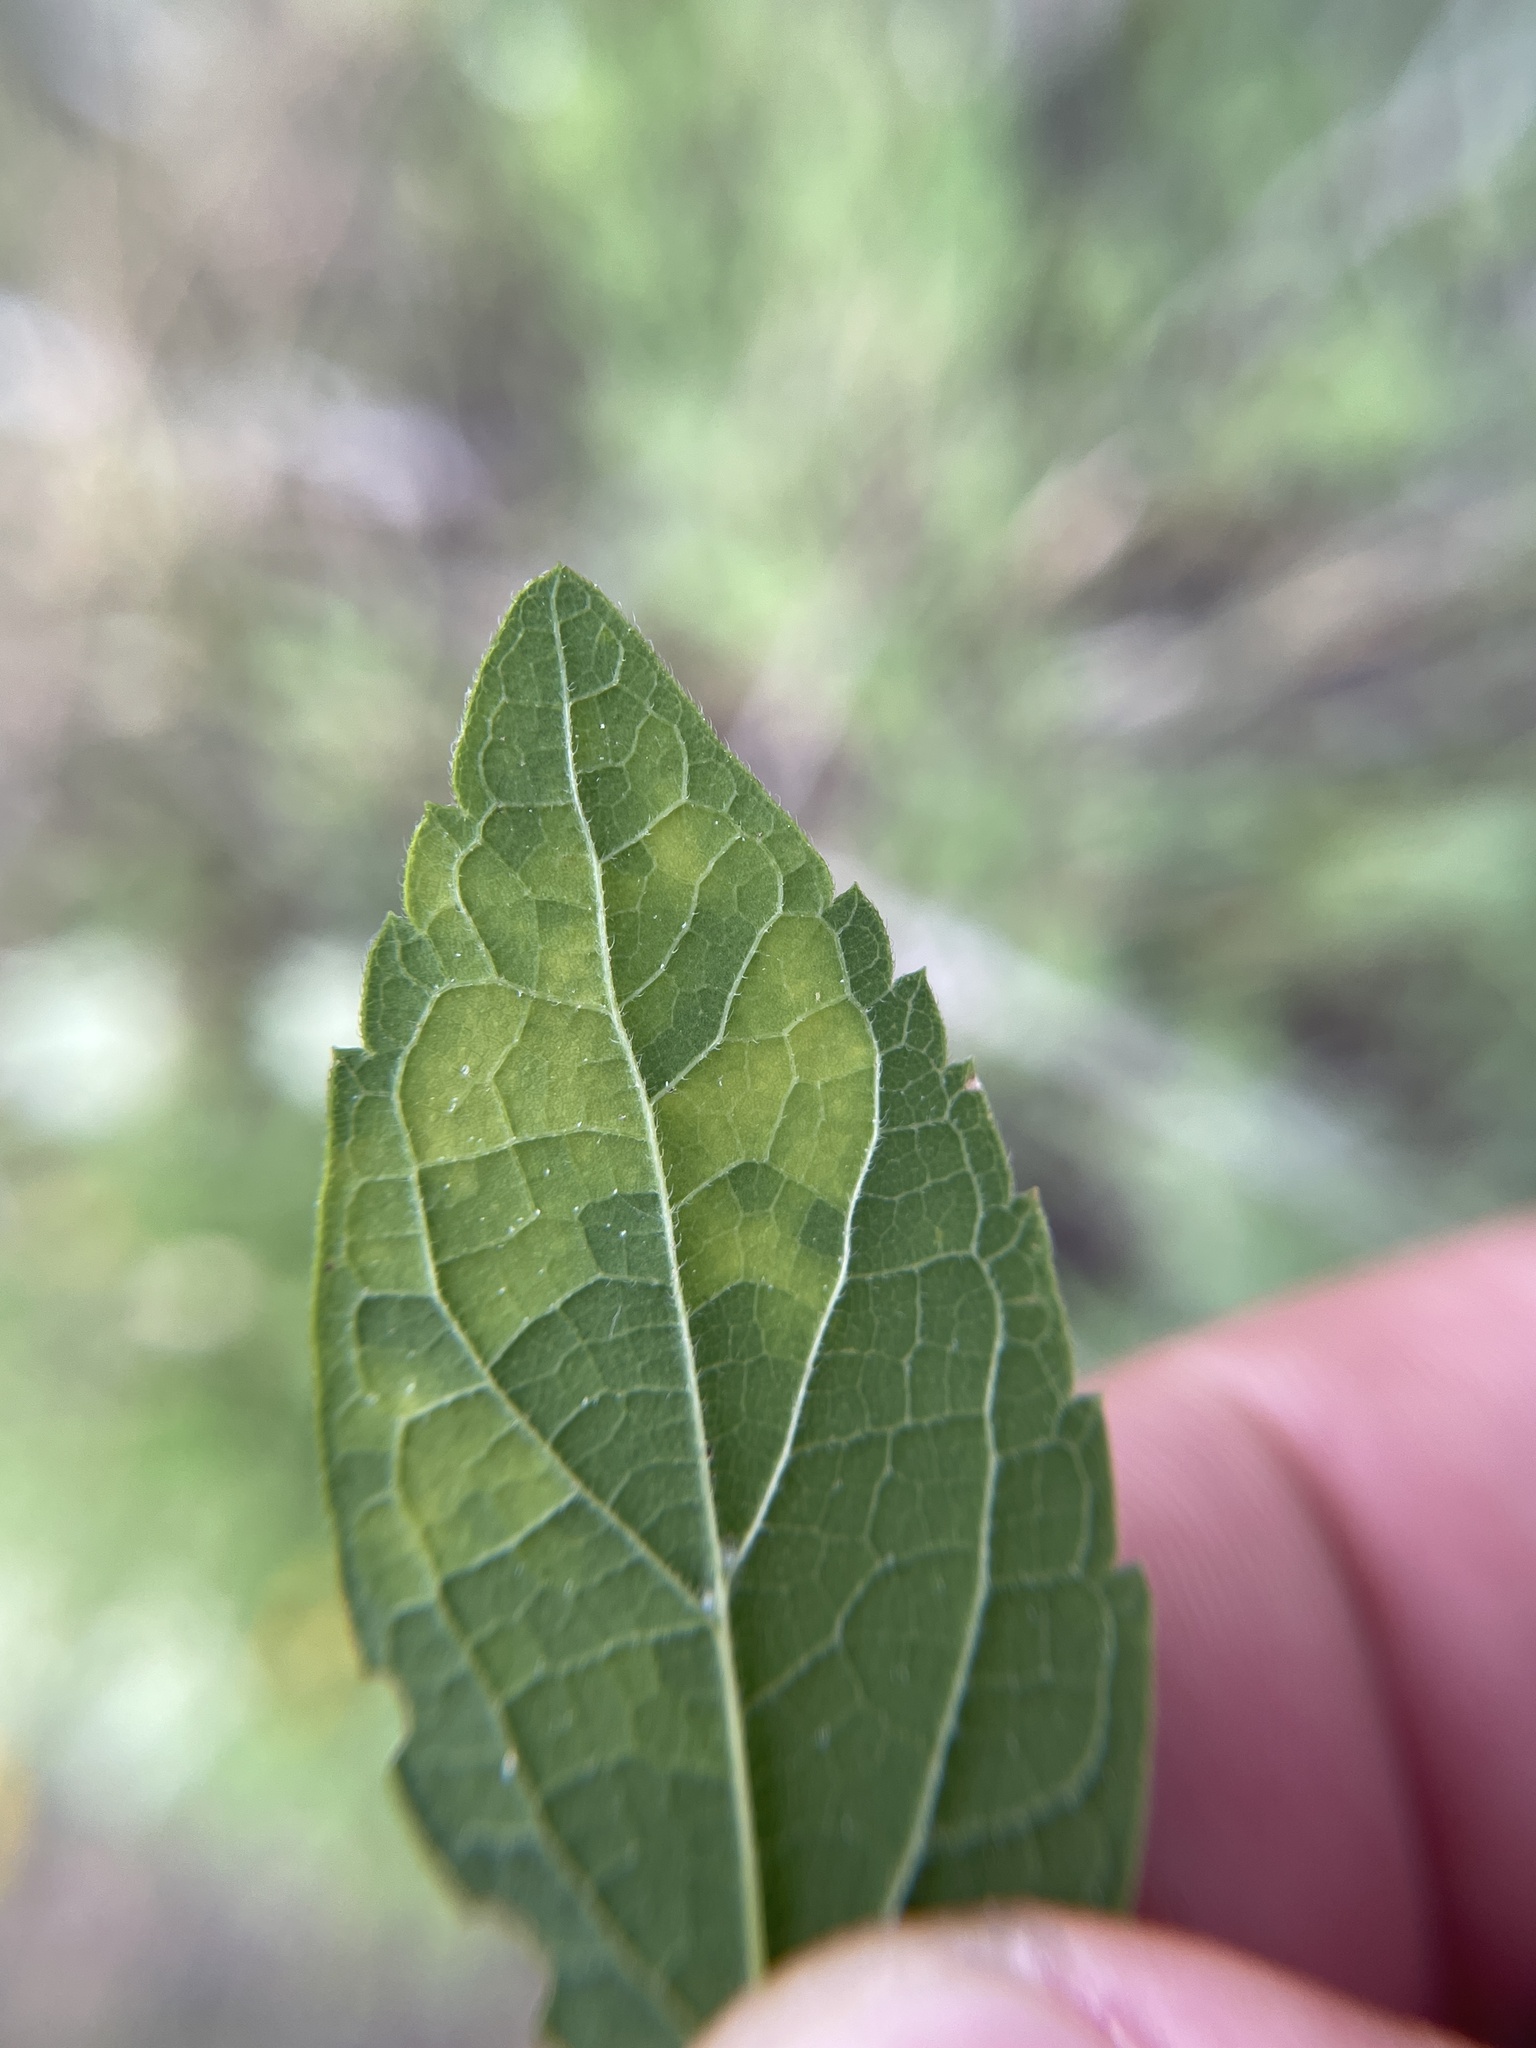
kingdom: Viruses
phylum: Kitrinoviricota
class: Alsuviricetes
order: Martellivirales
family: Closteroviridae
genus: Ampelovirus
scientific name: Ampelovirus
